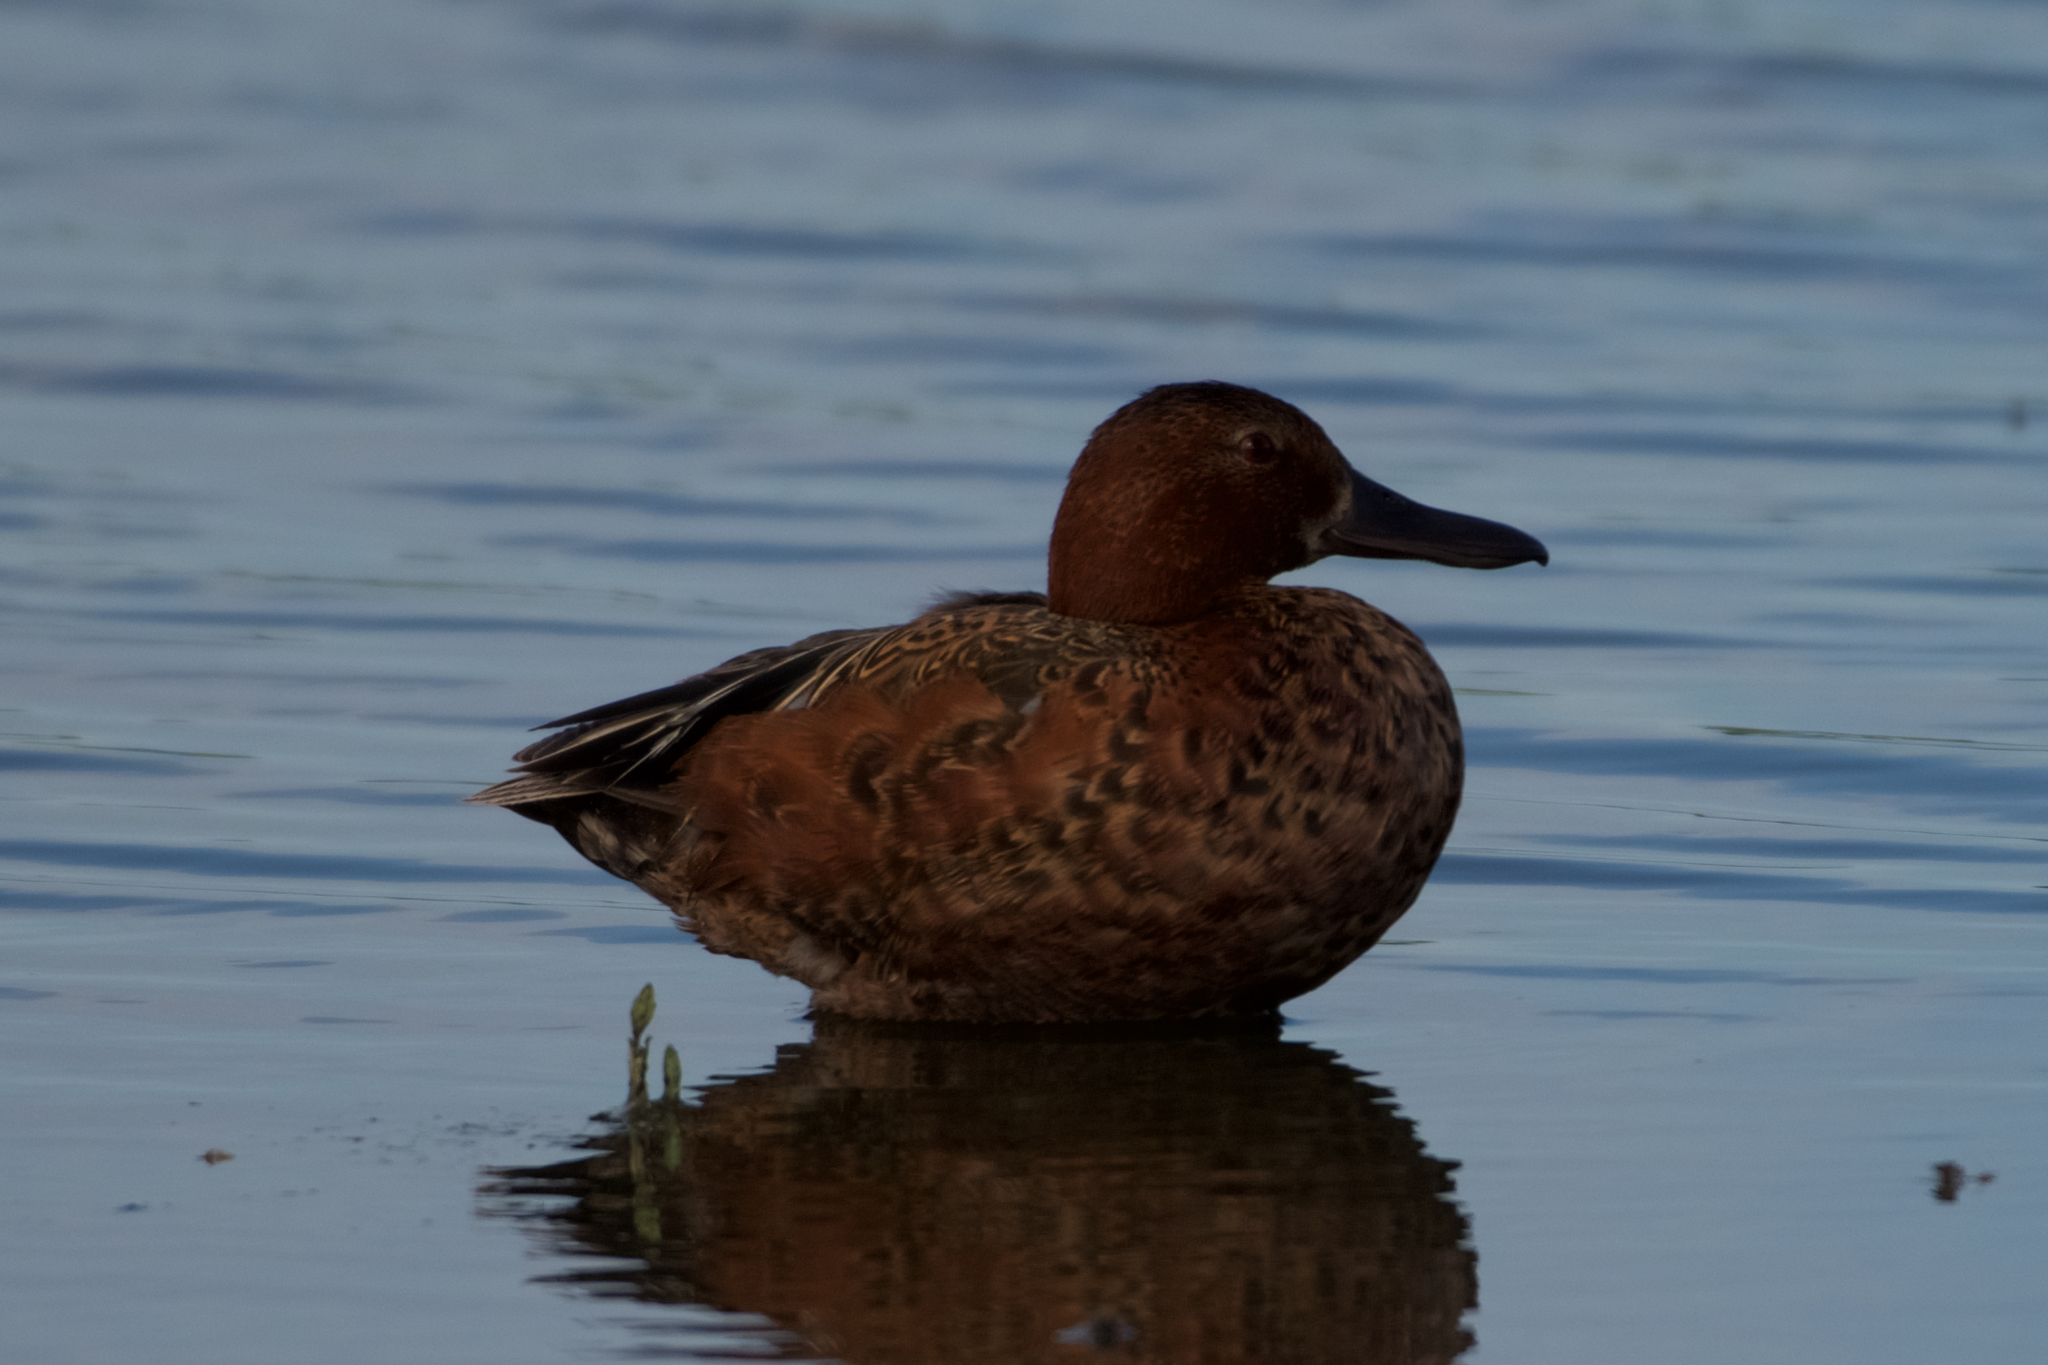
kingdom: Animalia
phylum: Chordata
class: Aves
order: Anseriformes
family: Anatidae
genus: Spatula
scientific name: Spatula cyanoptera
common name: Cinnamon teal
